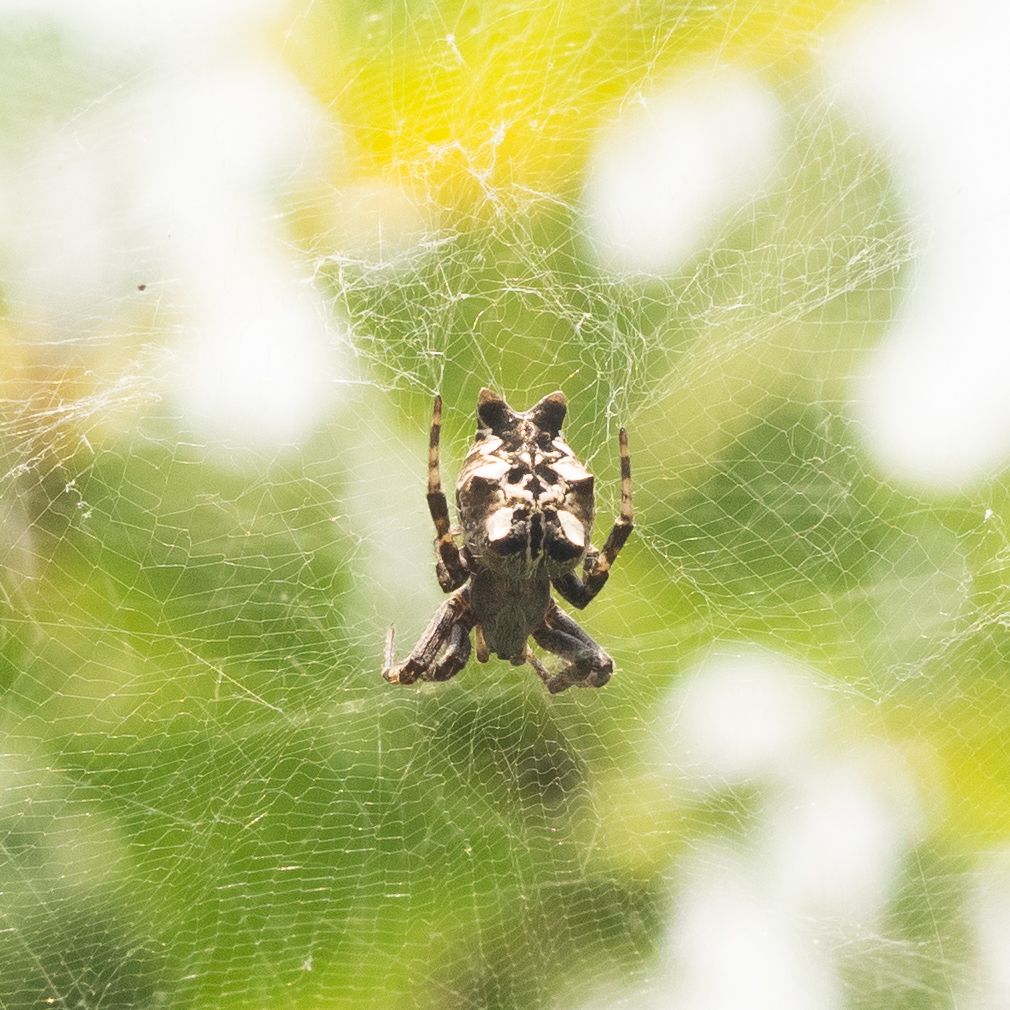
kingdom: Animalia
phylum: Arthropoda
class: Arachnida
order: Araneae
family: Araneidae
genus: Cyrtophora
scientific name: Cyrtophora citricola
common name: Orb weavers
